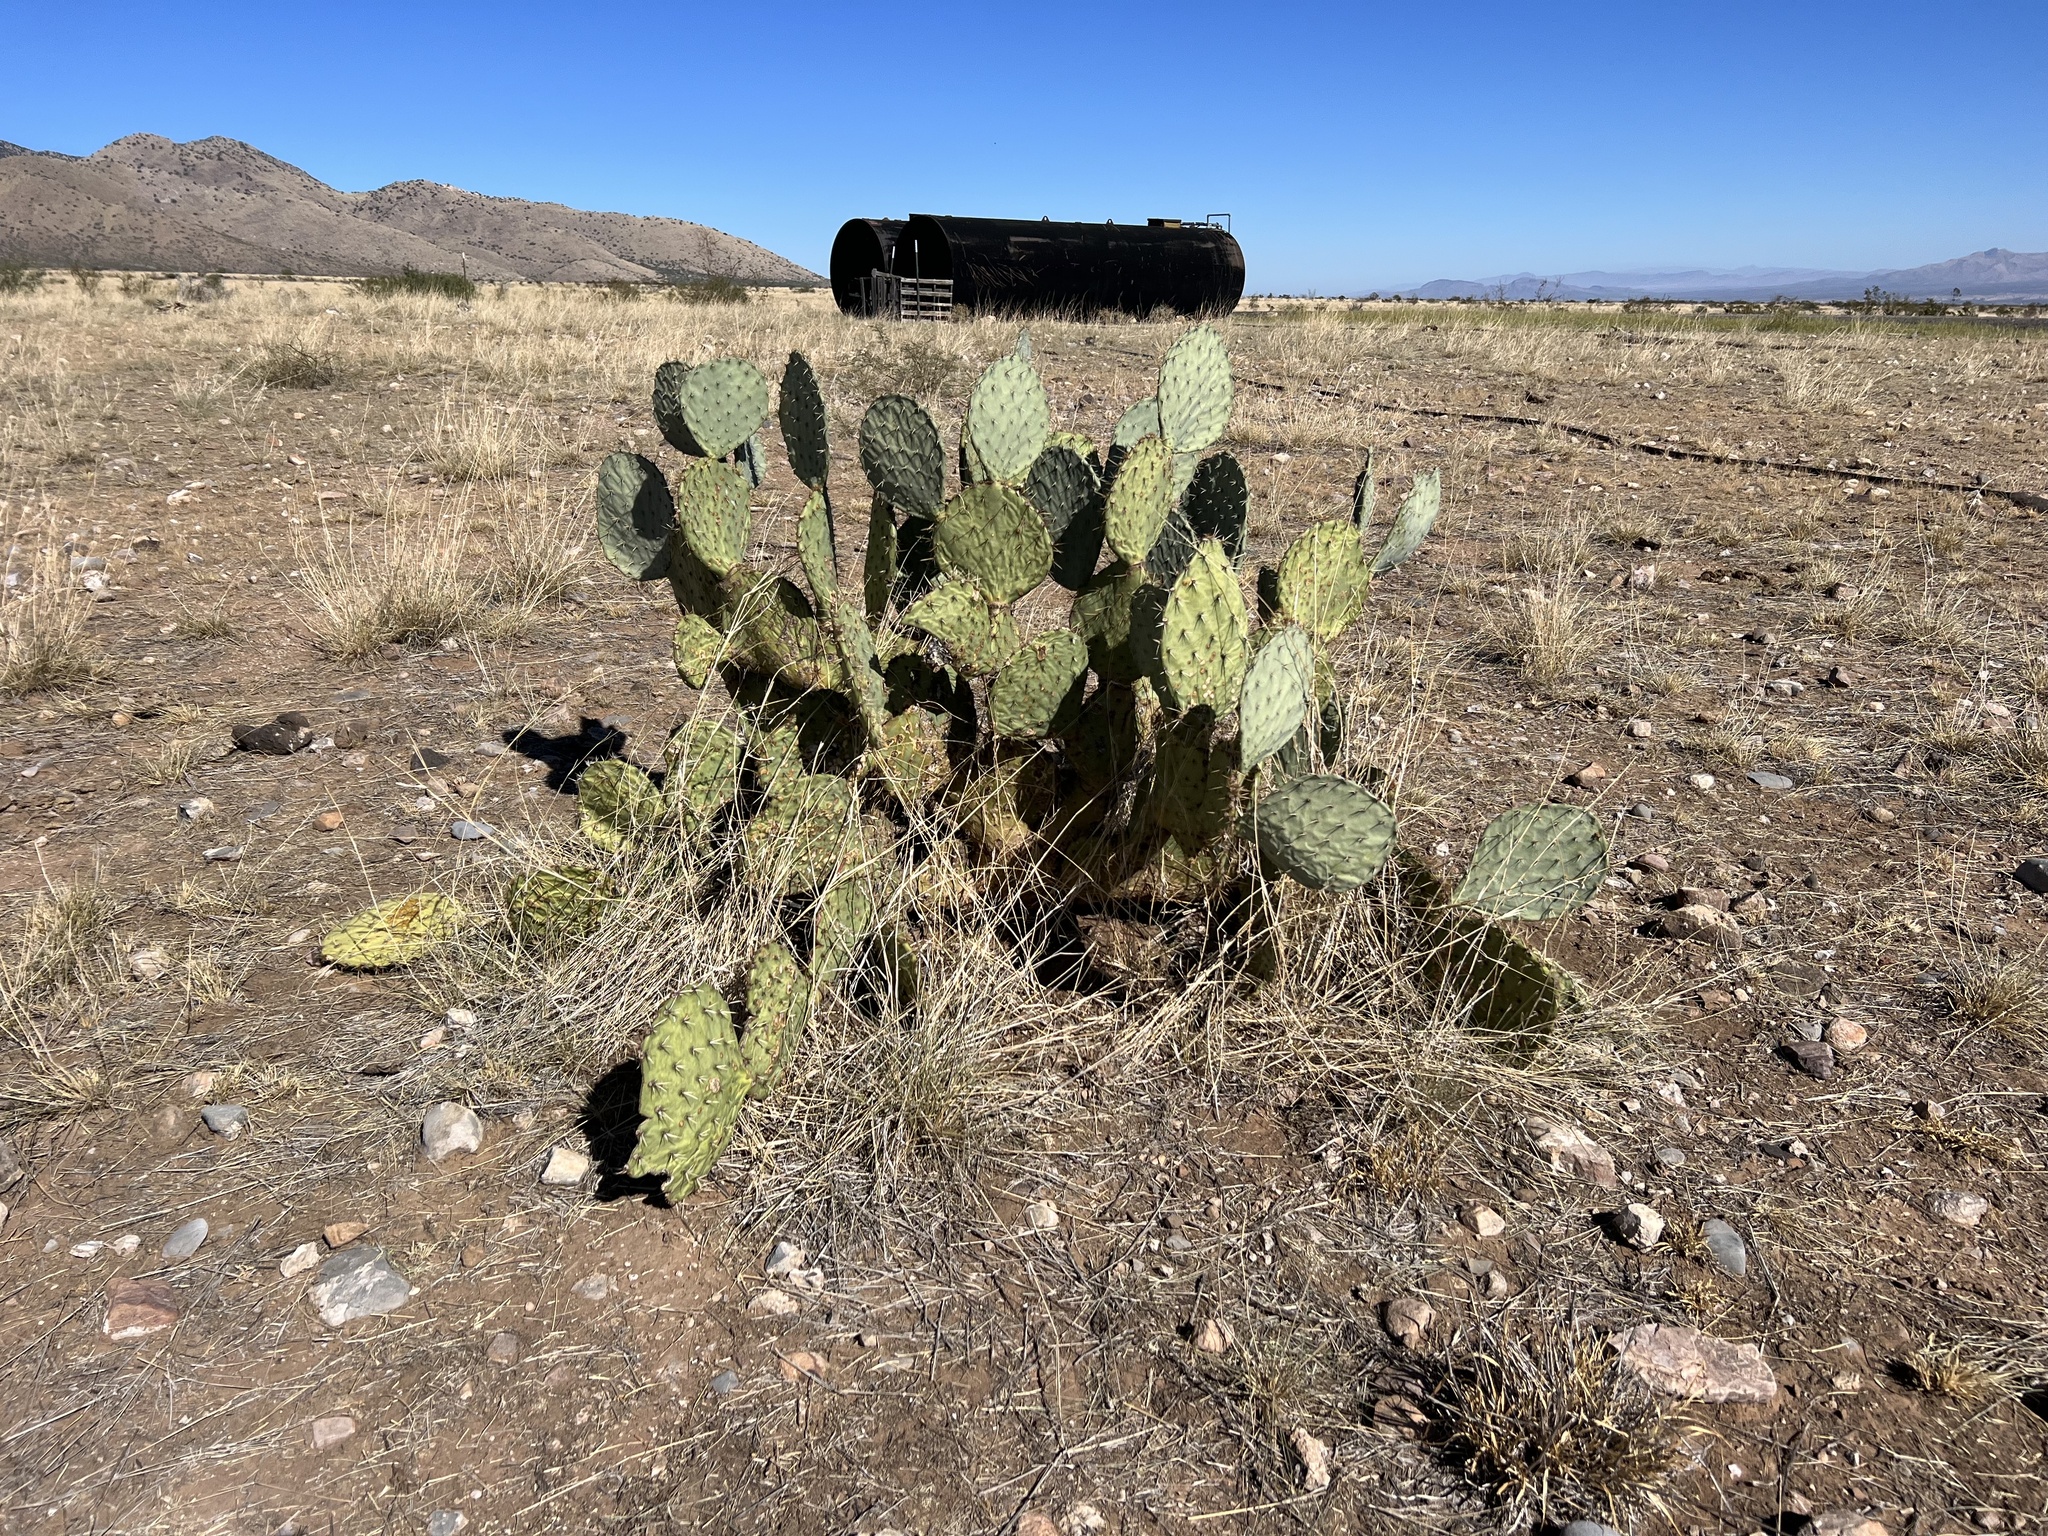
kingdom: Plantae
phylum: Tracheophyta
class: Magnoliopsida
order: Caryophyllales
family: Cactaceae
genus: Opuntia
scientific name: Opuntia engelmannii
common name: Cactus-apple
